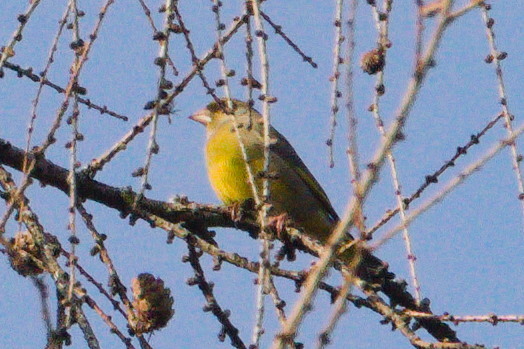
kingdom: Plantae
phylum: Tracheophyta
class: Liliopsida
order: Poales
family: Poaceae
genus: Chloris
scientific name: Chloris chloris
